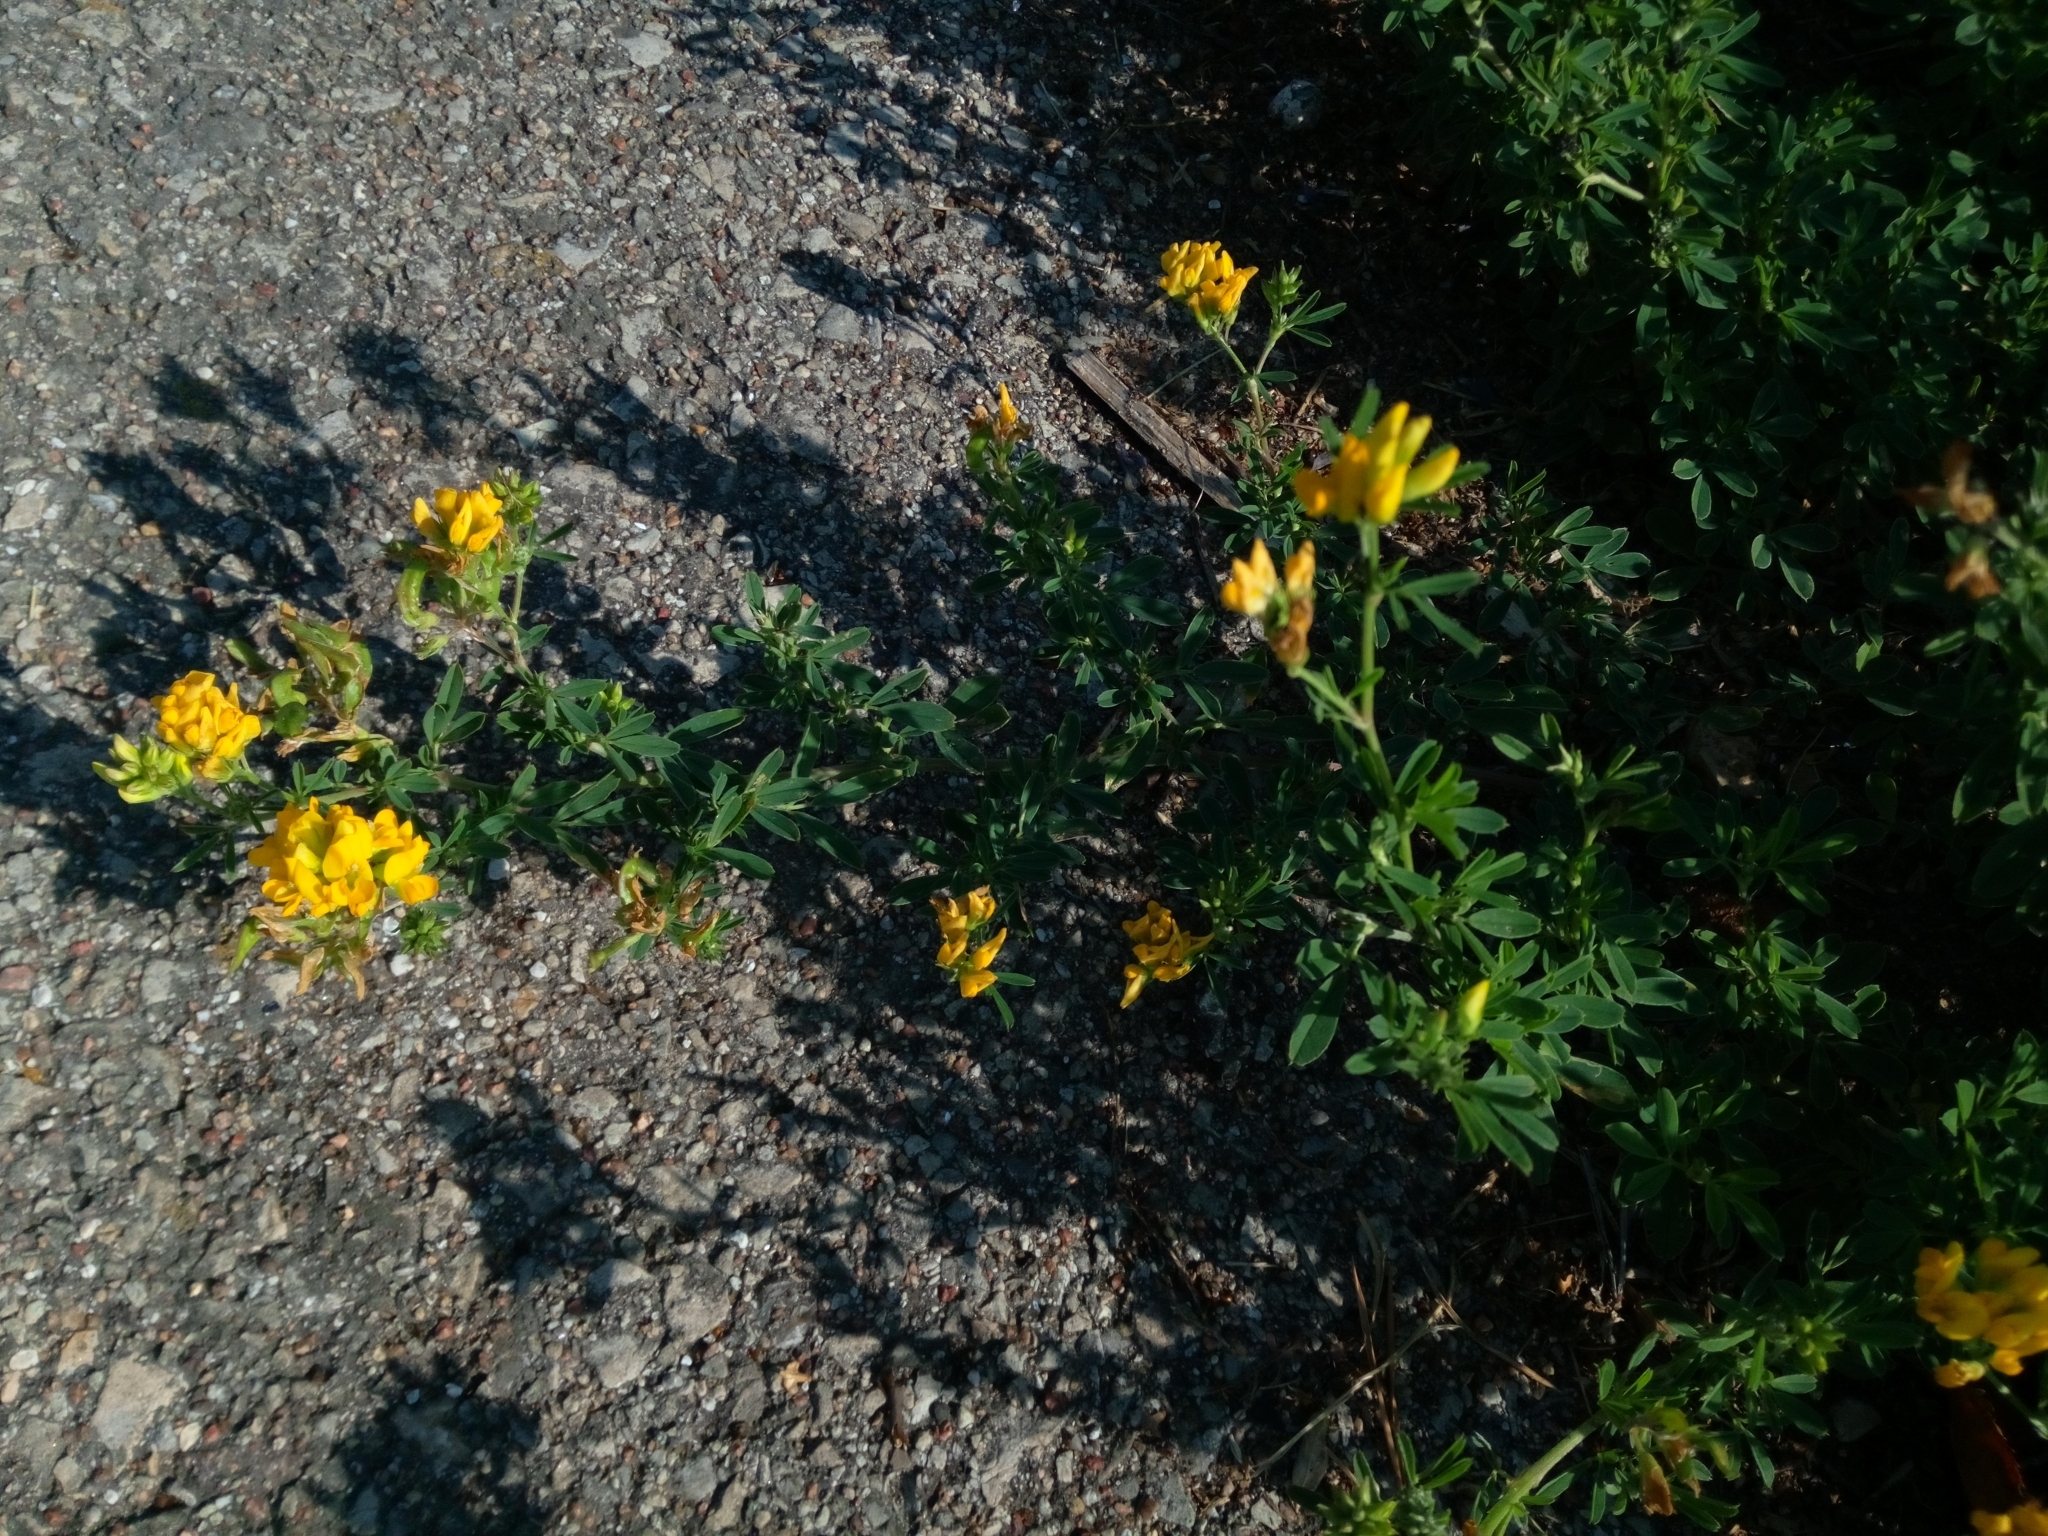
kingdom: Plantae
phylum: Tracheophyta
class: Magnoliopsida
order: Fabales
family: Fabaceae
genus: Medicago
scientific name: Medicago falcata
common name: Sickle medick
